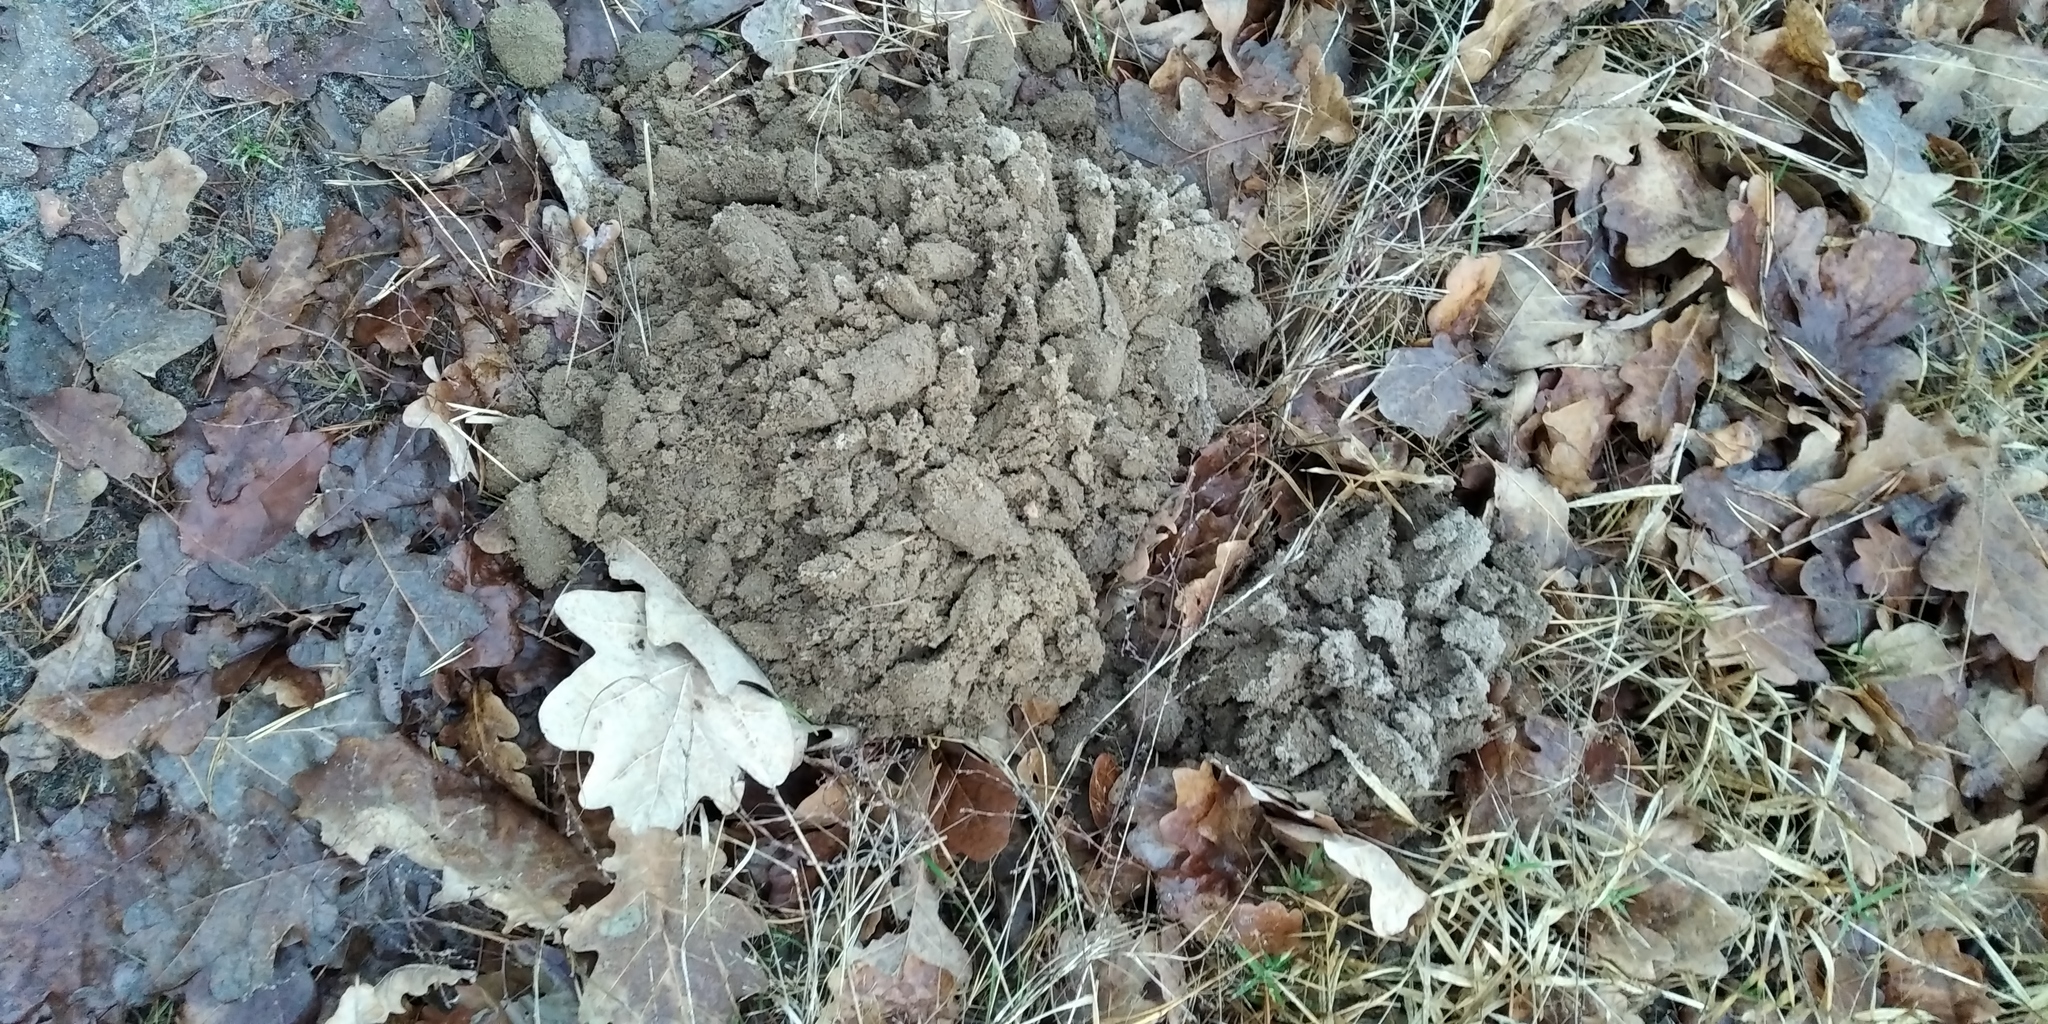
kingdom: Animalia
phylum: Chordata
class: Mammalia
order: Soricomorpha
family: Talpidae
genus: Talpa
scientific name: Talpa europaea
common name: European mole
